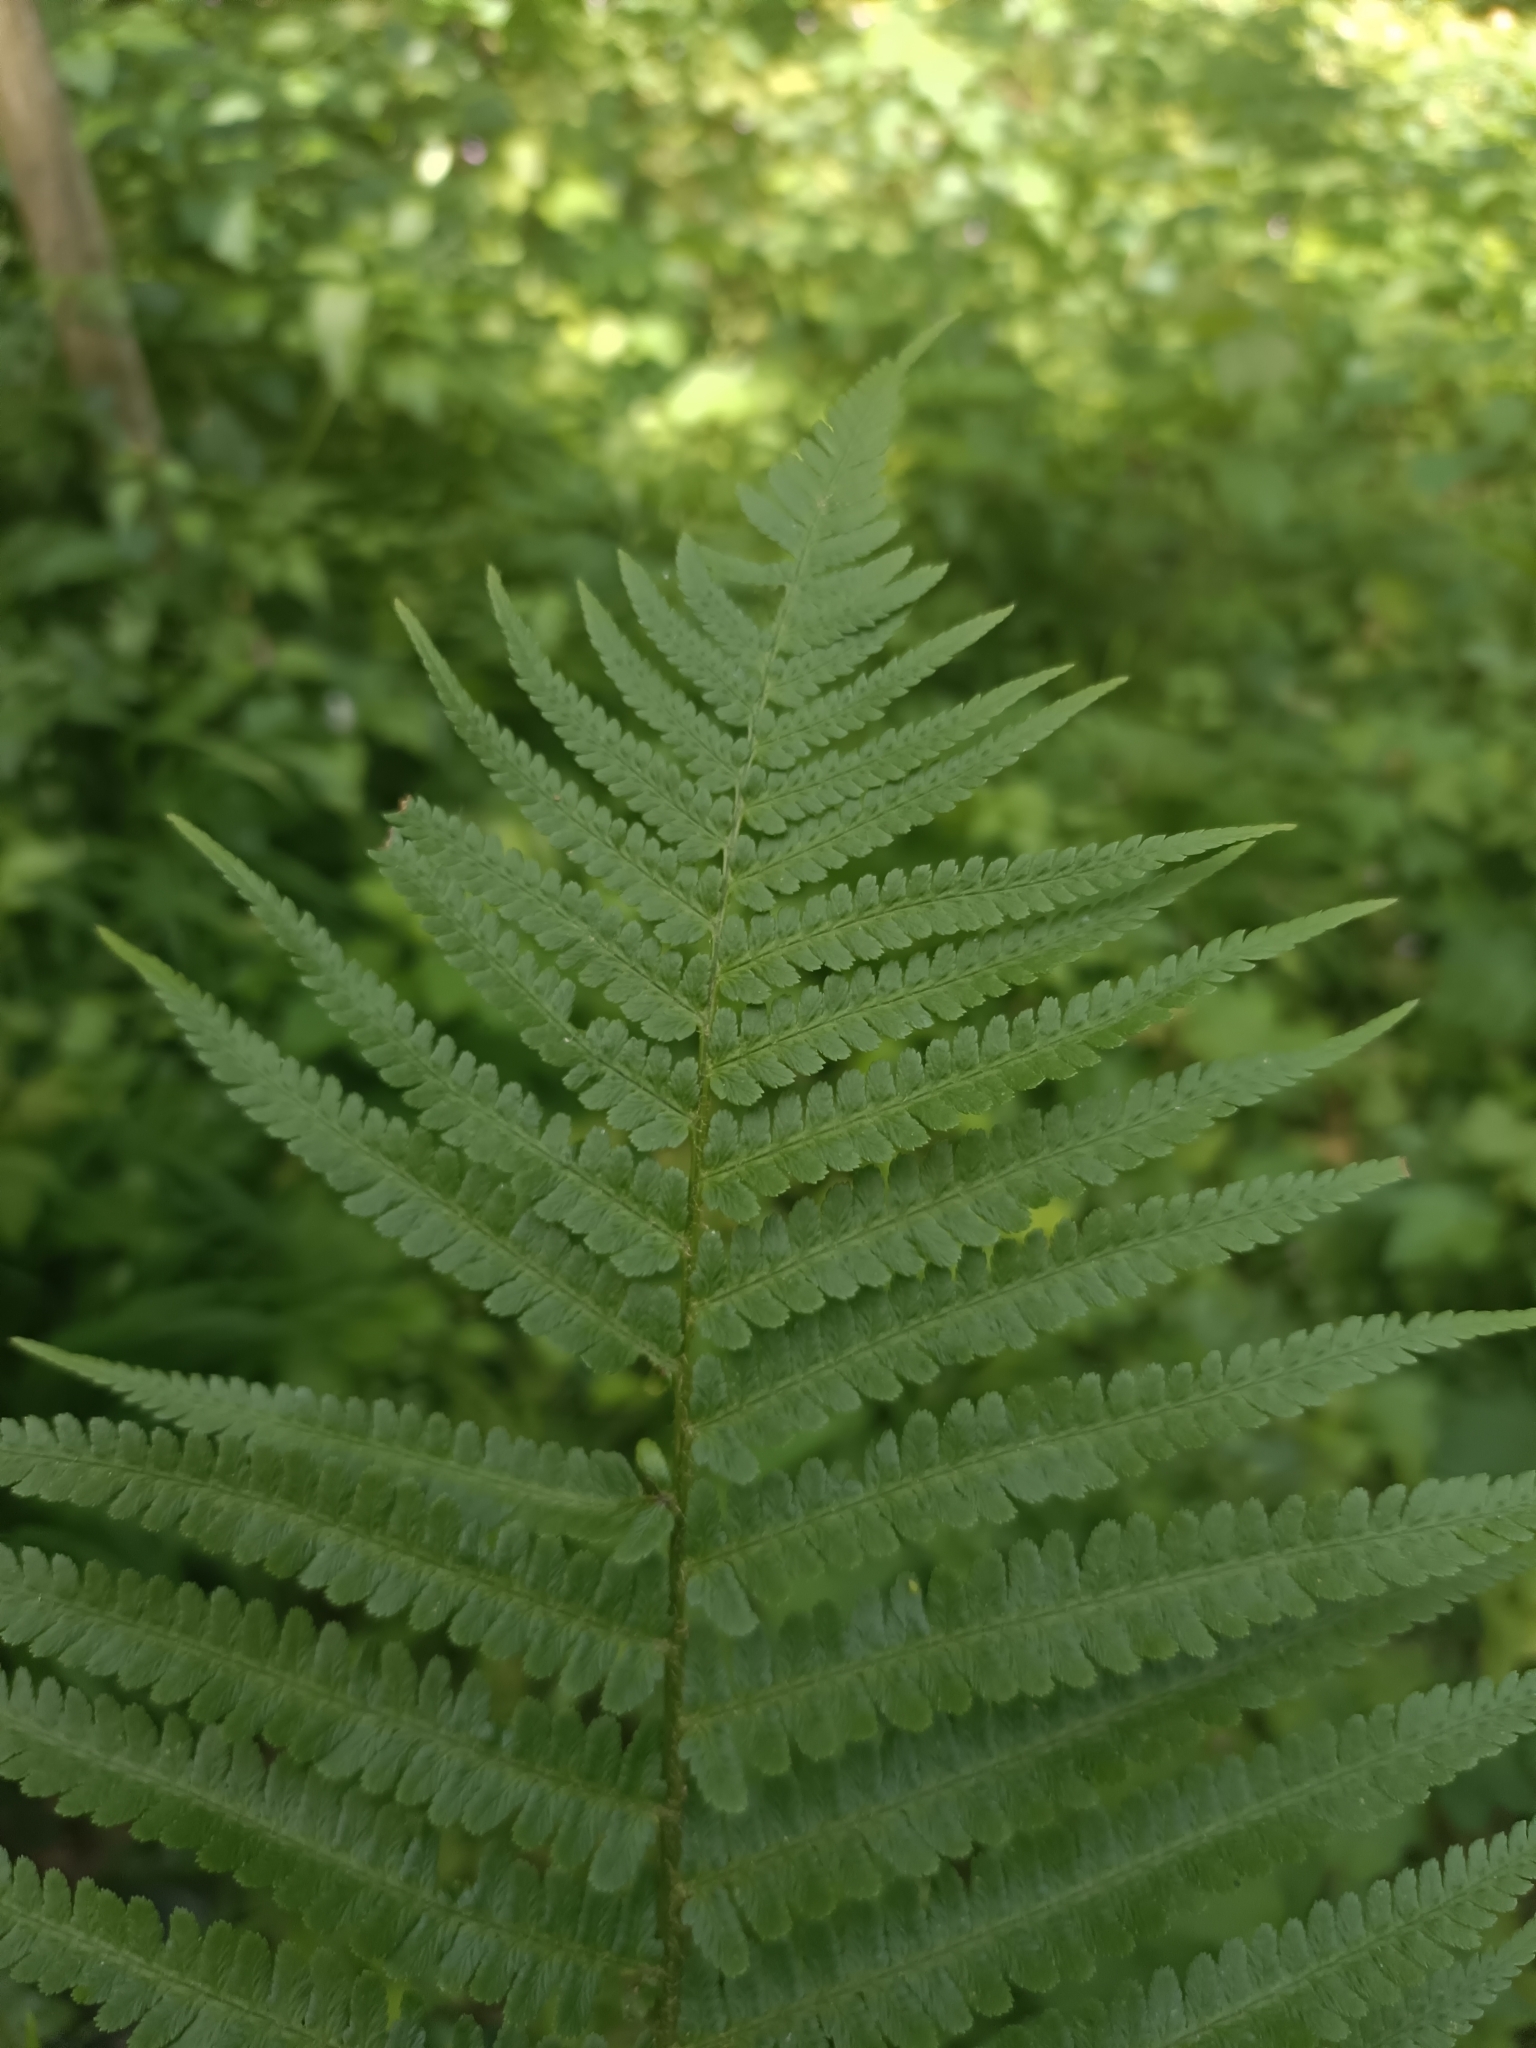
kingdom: Plantae
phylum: Tracheophyta
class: Polypodiopsida
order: Polypodiales
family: Dryopteridaceae
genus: Dryopteris
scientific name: Dryopteris filix-mas
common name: Male fern
